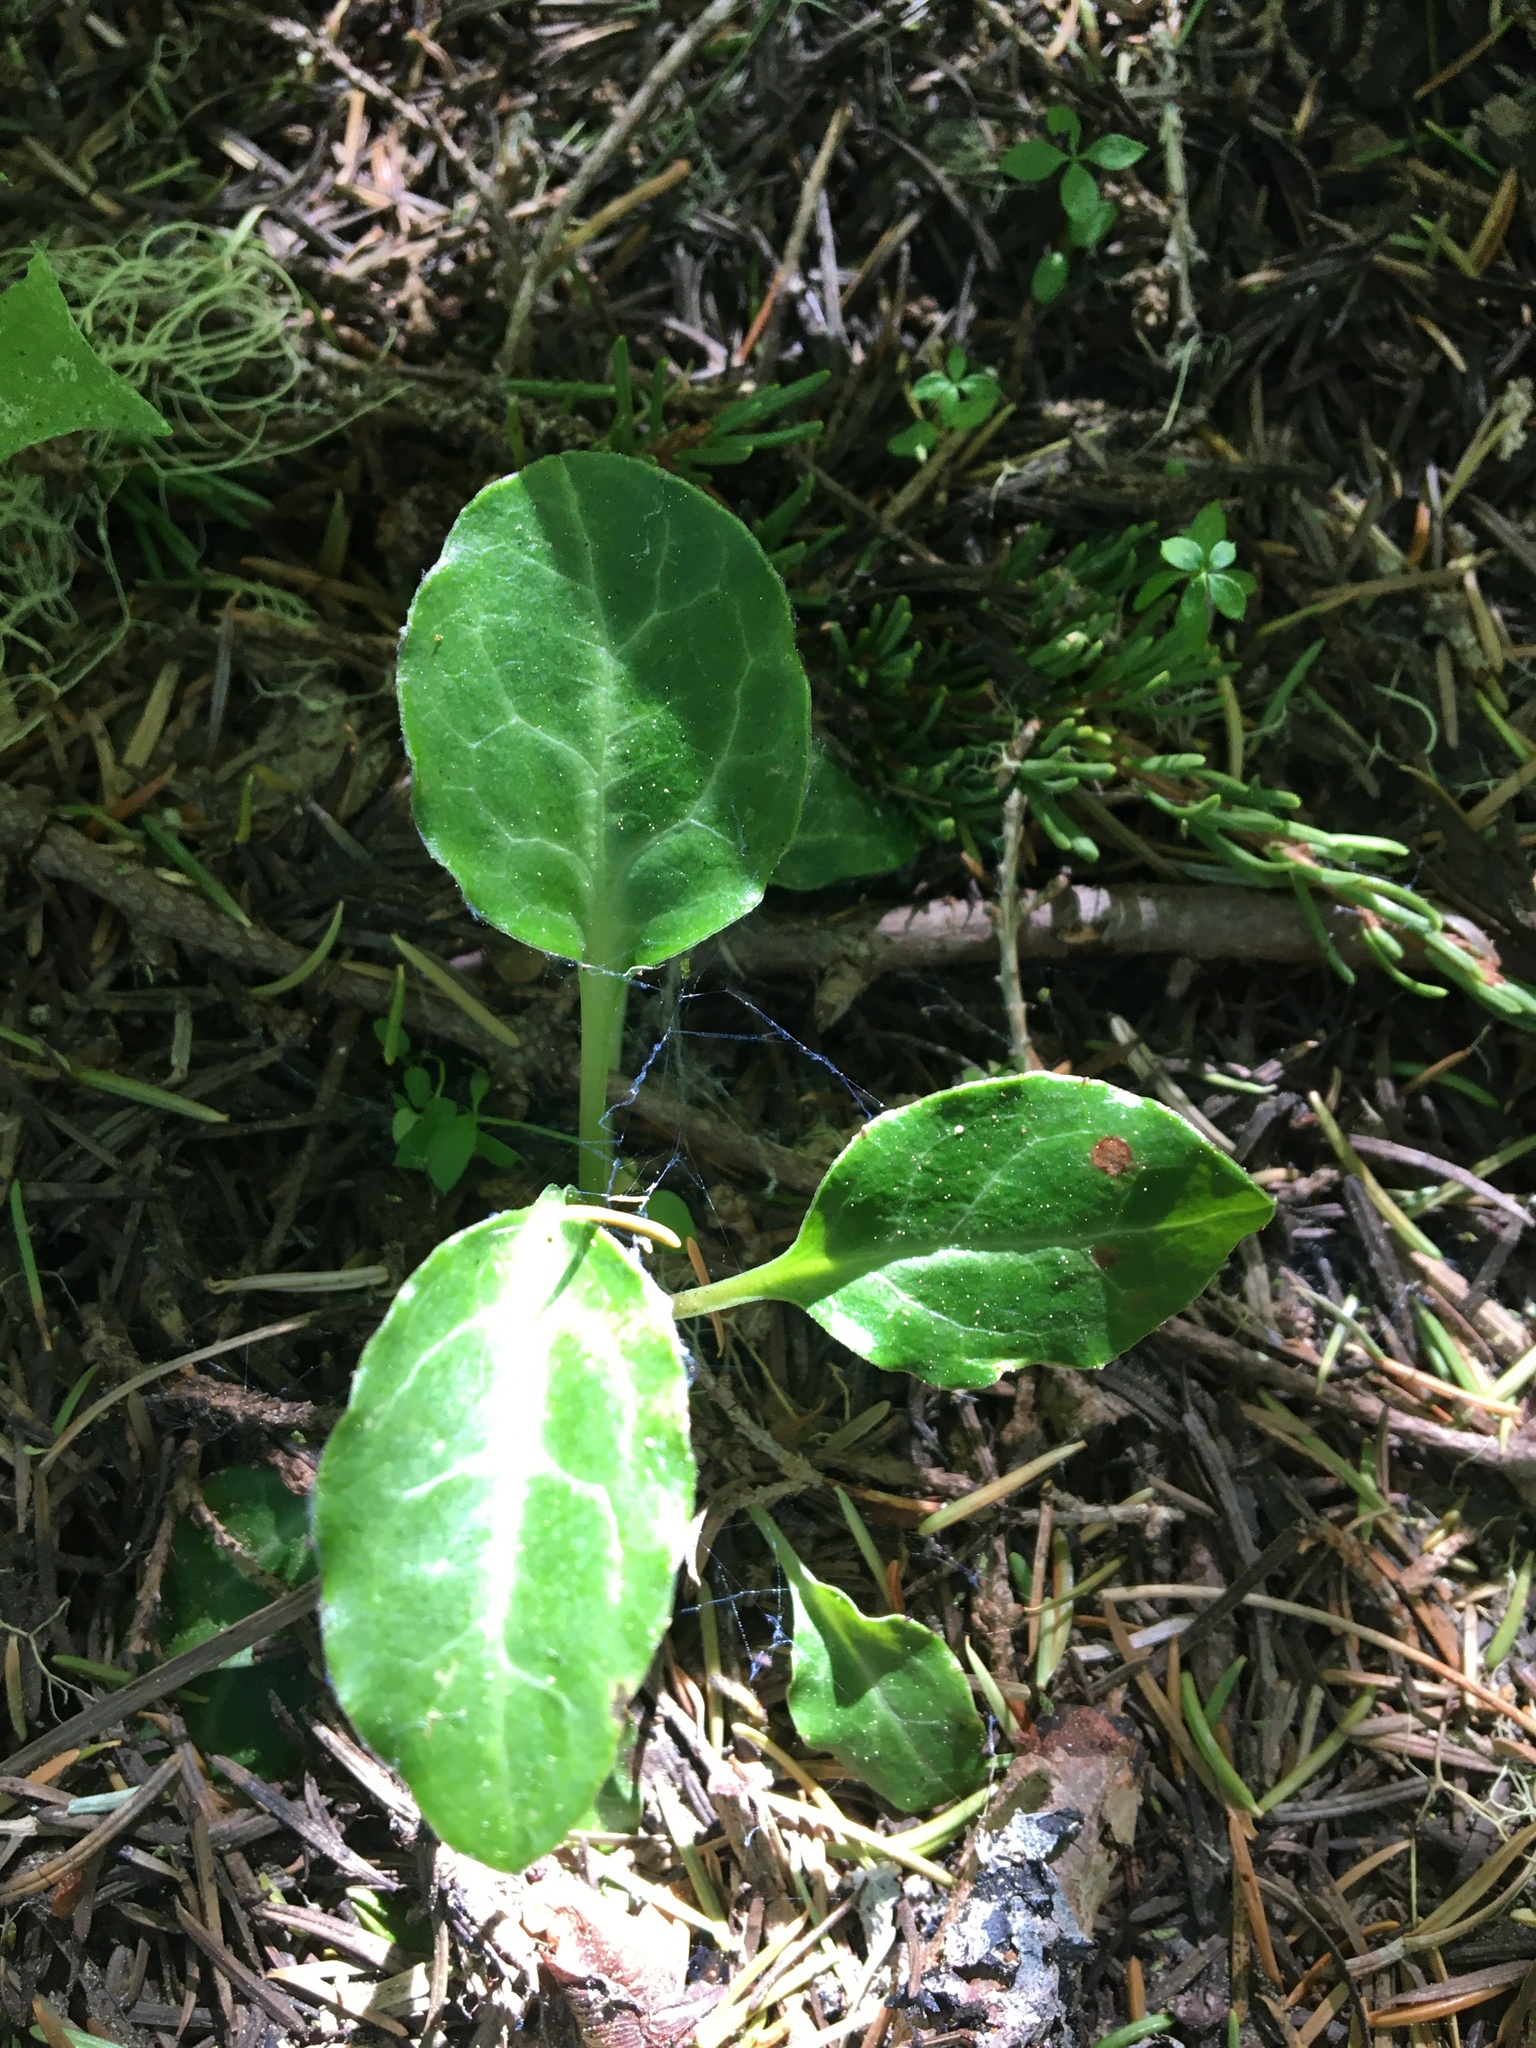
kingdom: Plantae
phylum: Tracheophyta
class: Magnoliopsida
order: Ericales
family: Ericaceae
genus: Pyrola
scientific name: Pyrola picta
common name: White-vein wintergreen
